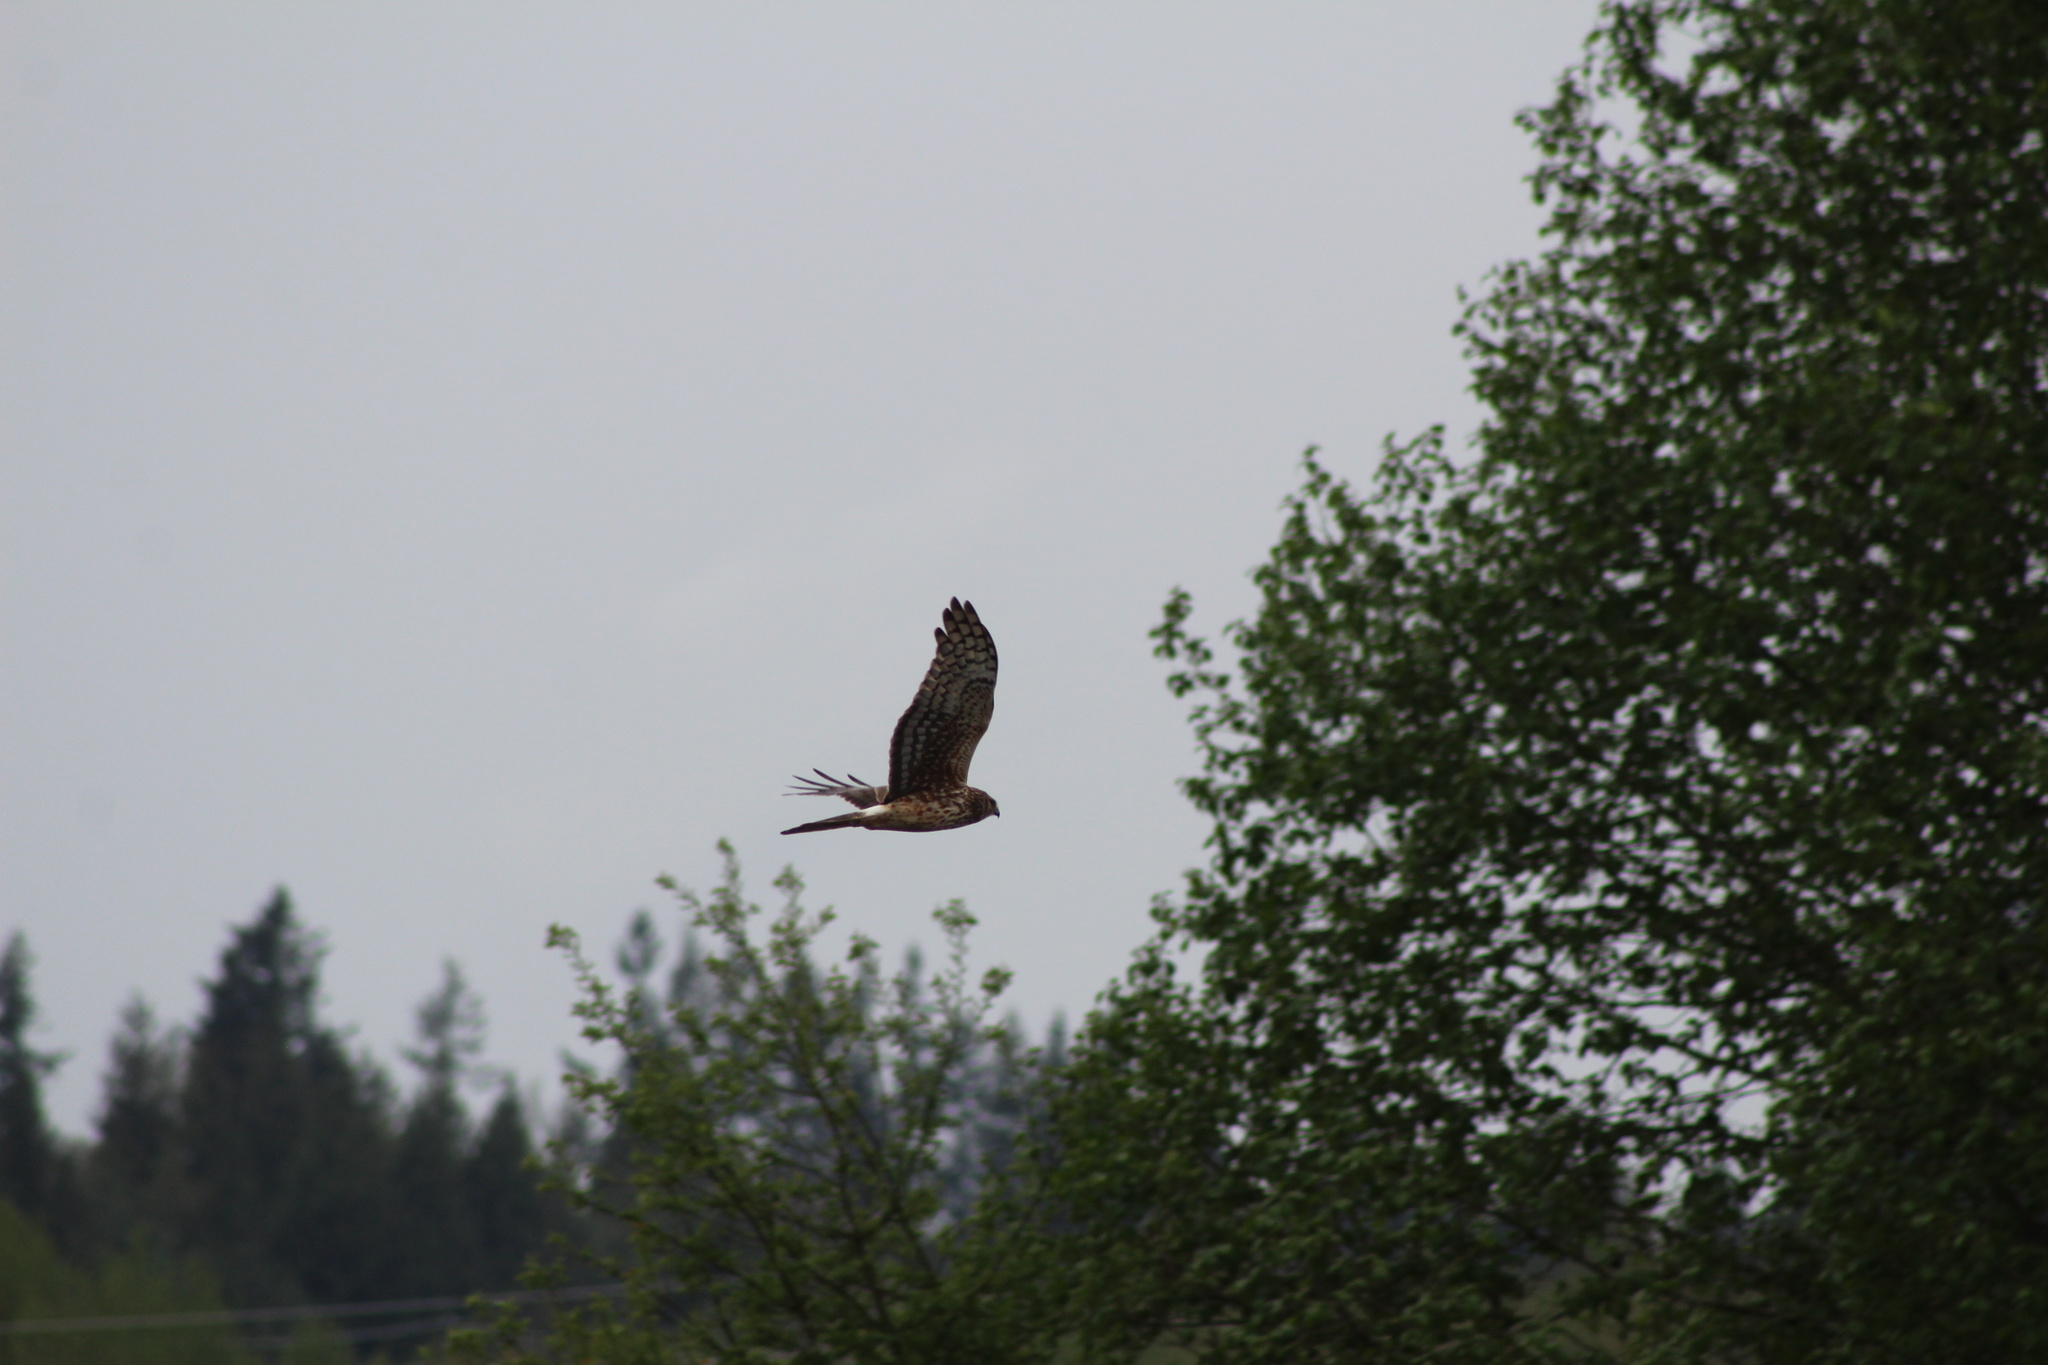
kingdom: Animalia
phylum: Chordata
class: Aves
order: Accipitriformes
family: Accipitridae
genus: Circus
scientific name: Circus cyaneus
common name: Hen harrier
